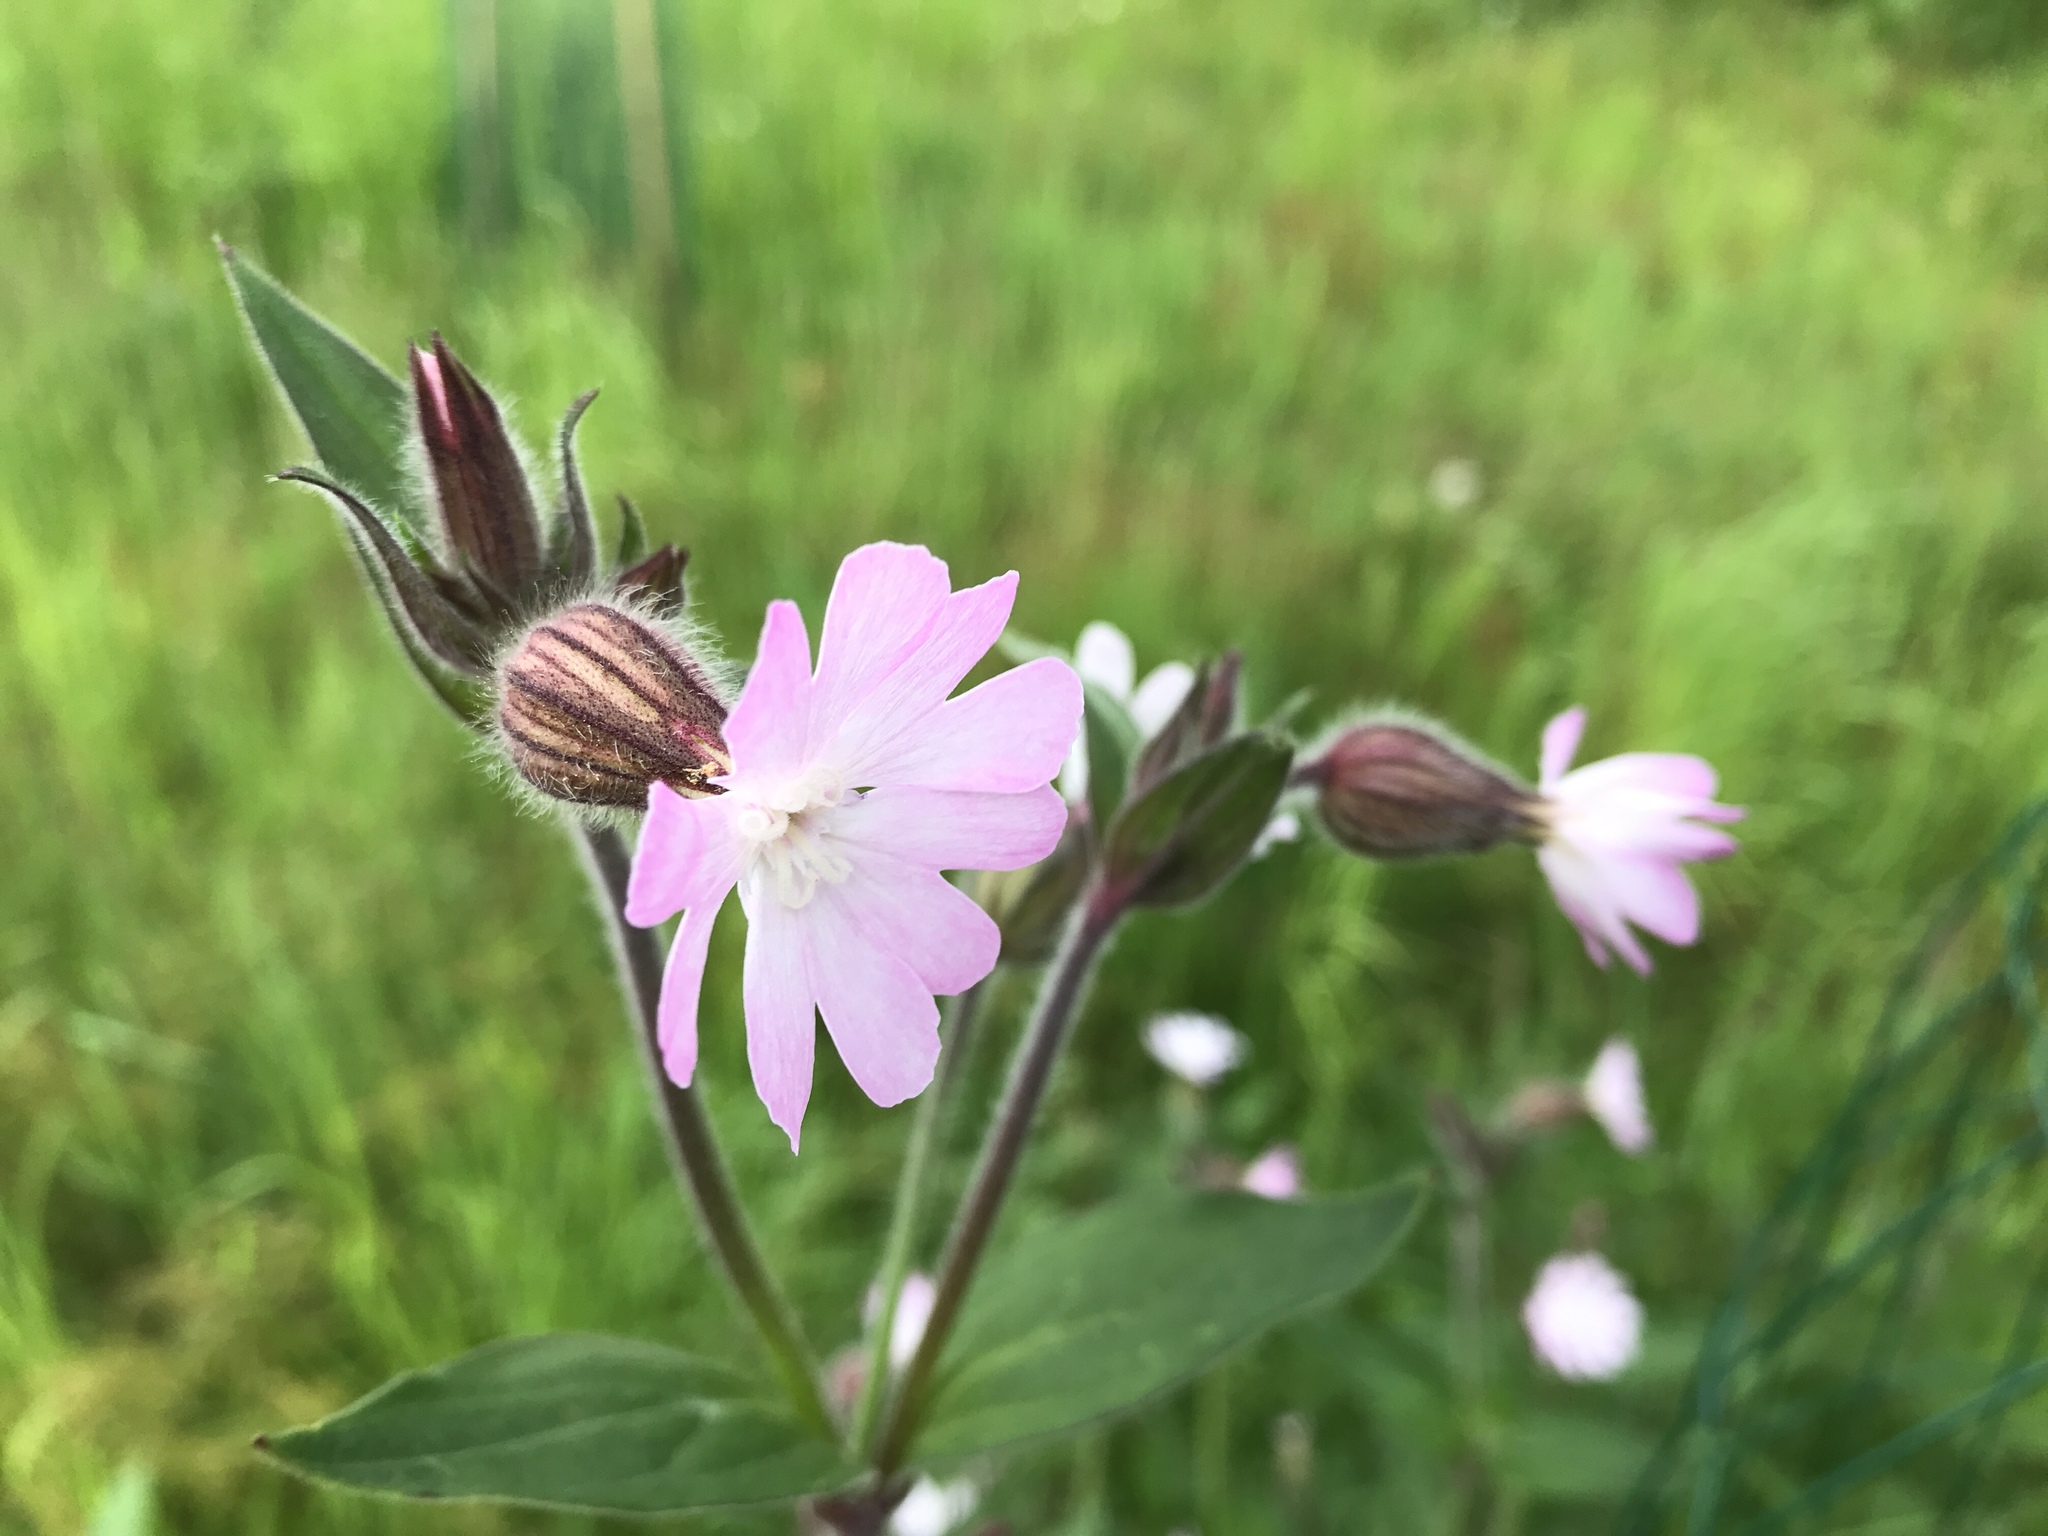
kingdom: Plantae
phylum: Tracheophyta
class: Magnoliopsida
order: Caryophyllales
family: Caryophyllaceae
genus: Silene
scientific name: Silene hampeana
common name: Catchfly
